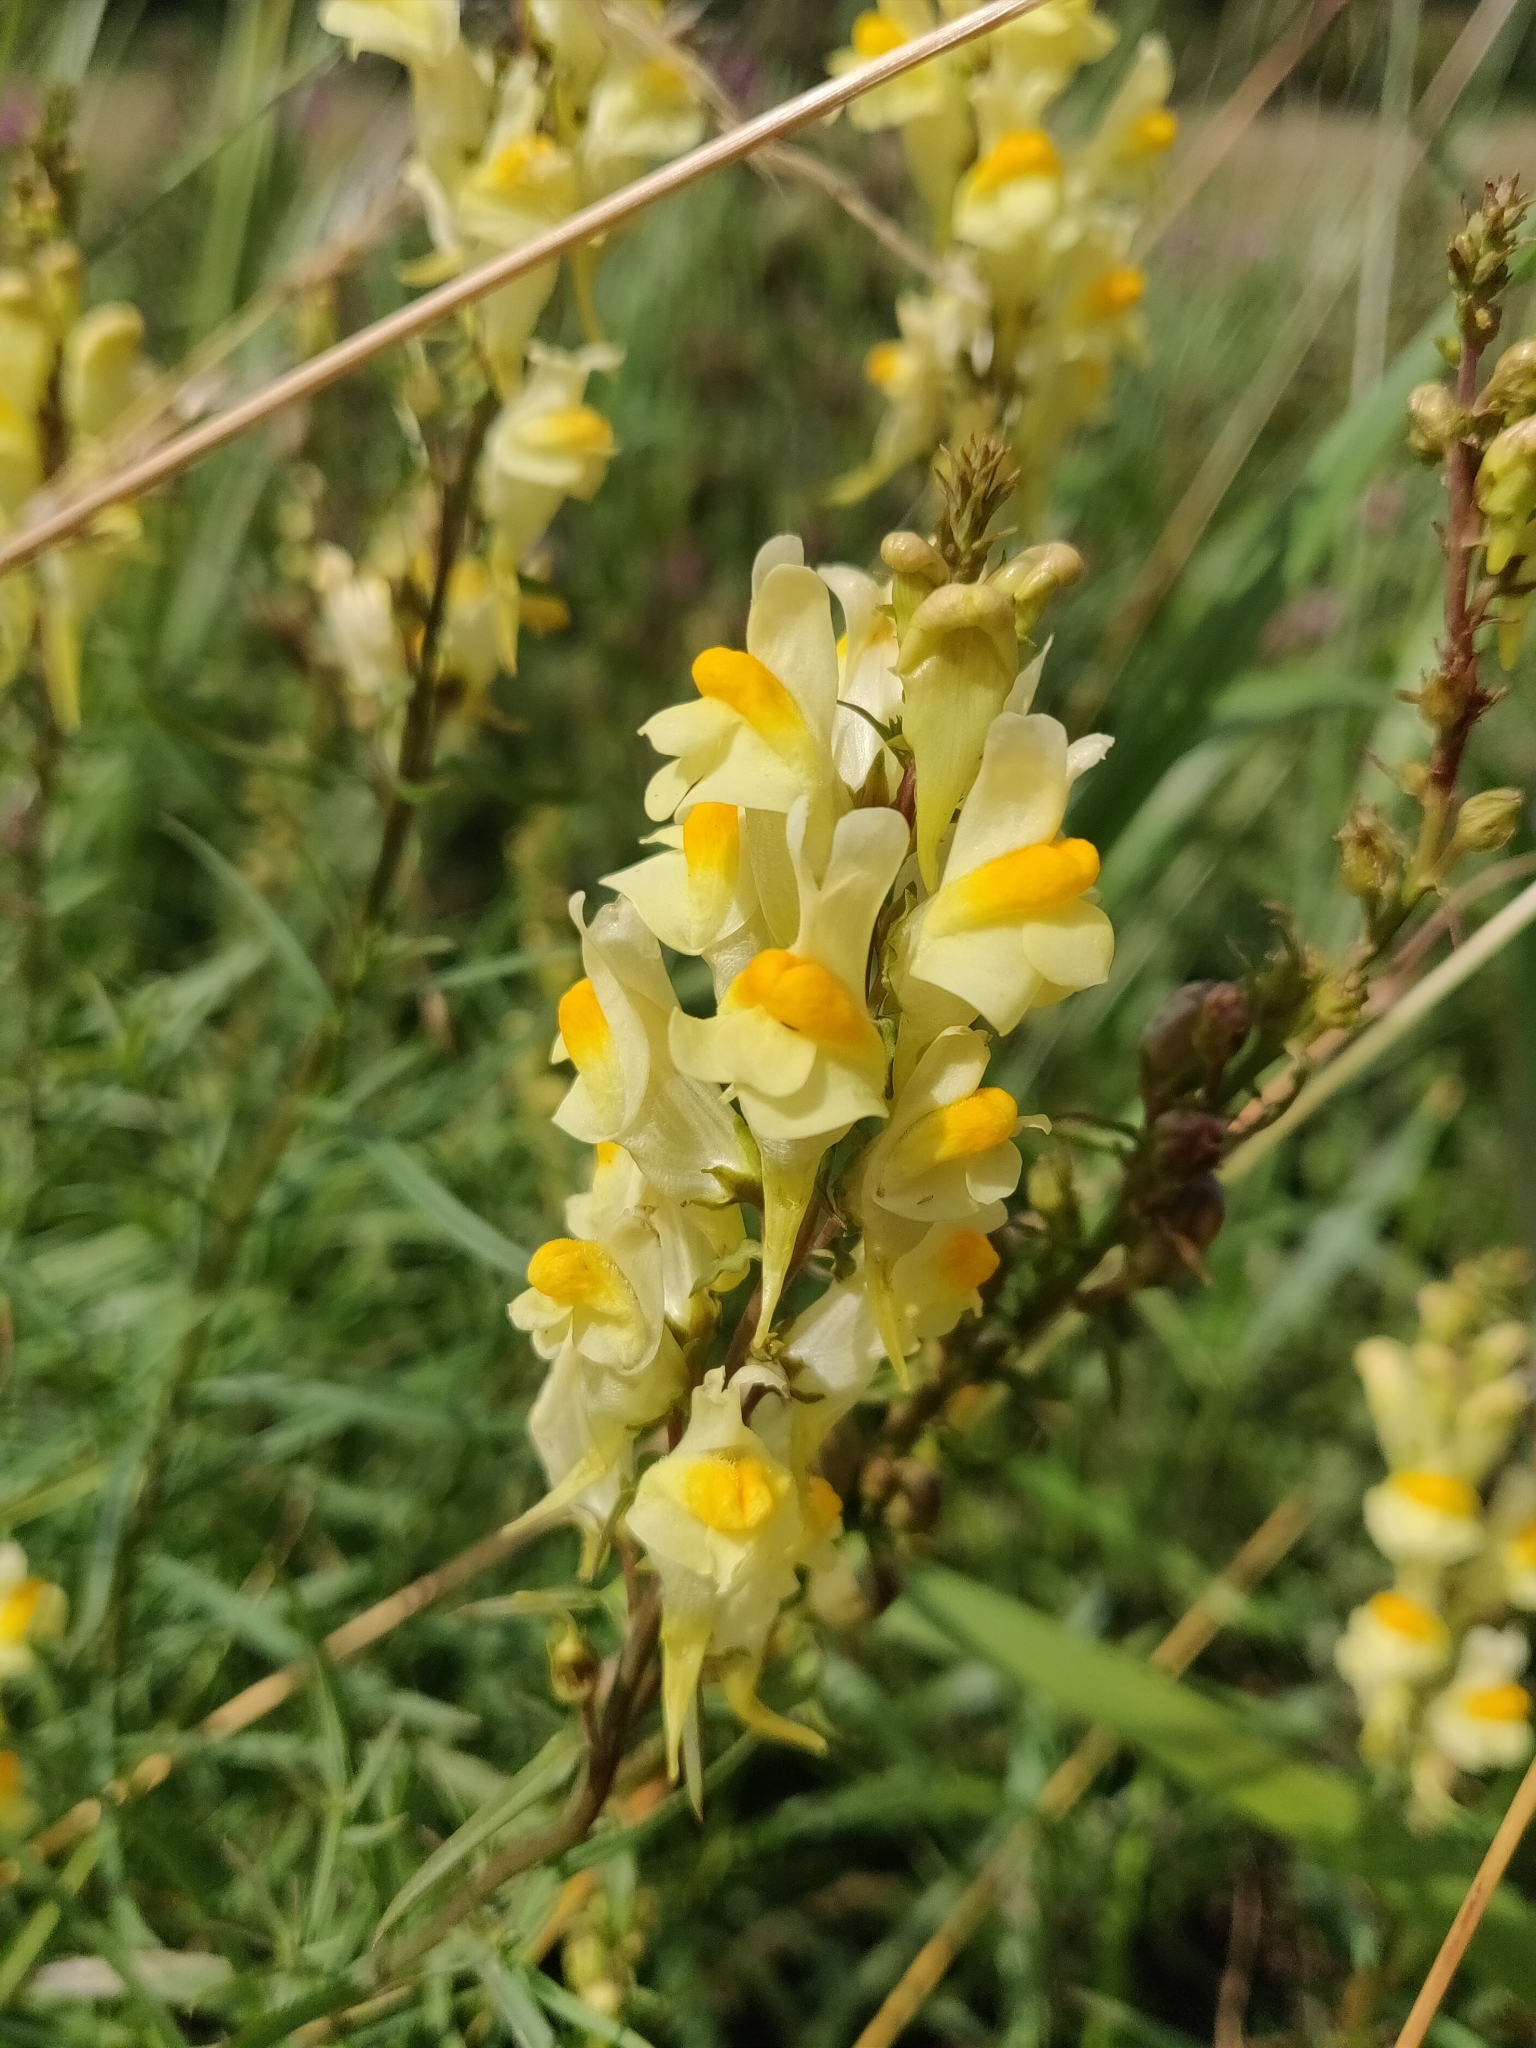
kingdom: Plantae
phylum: Tracheophyta
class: Magnoliopsida
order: Lamiales
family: Plantaginaceae
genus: Linaria
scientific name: Linaria vulgaris
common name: Butter and eggs
